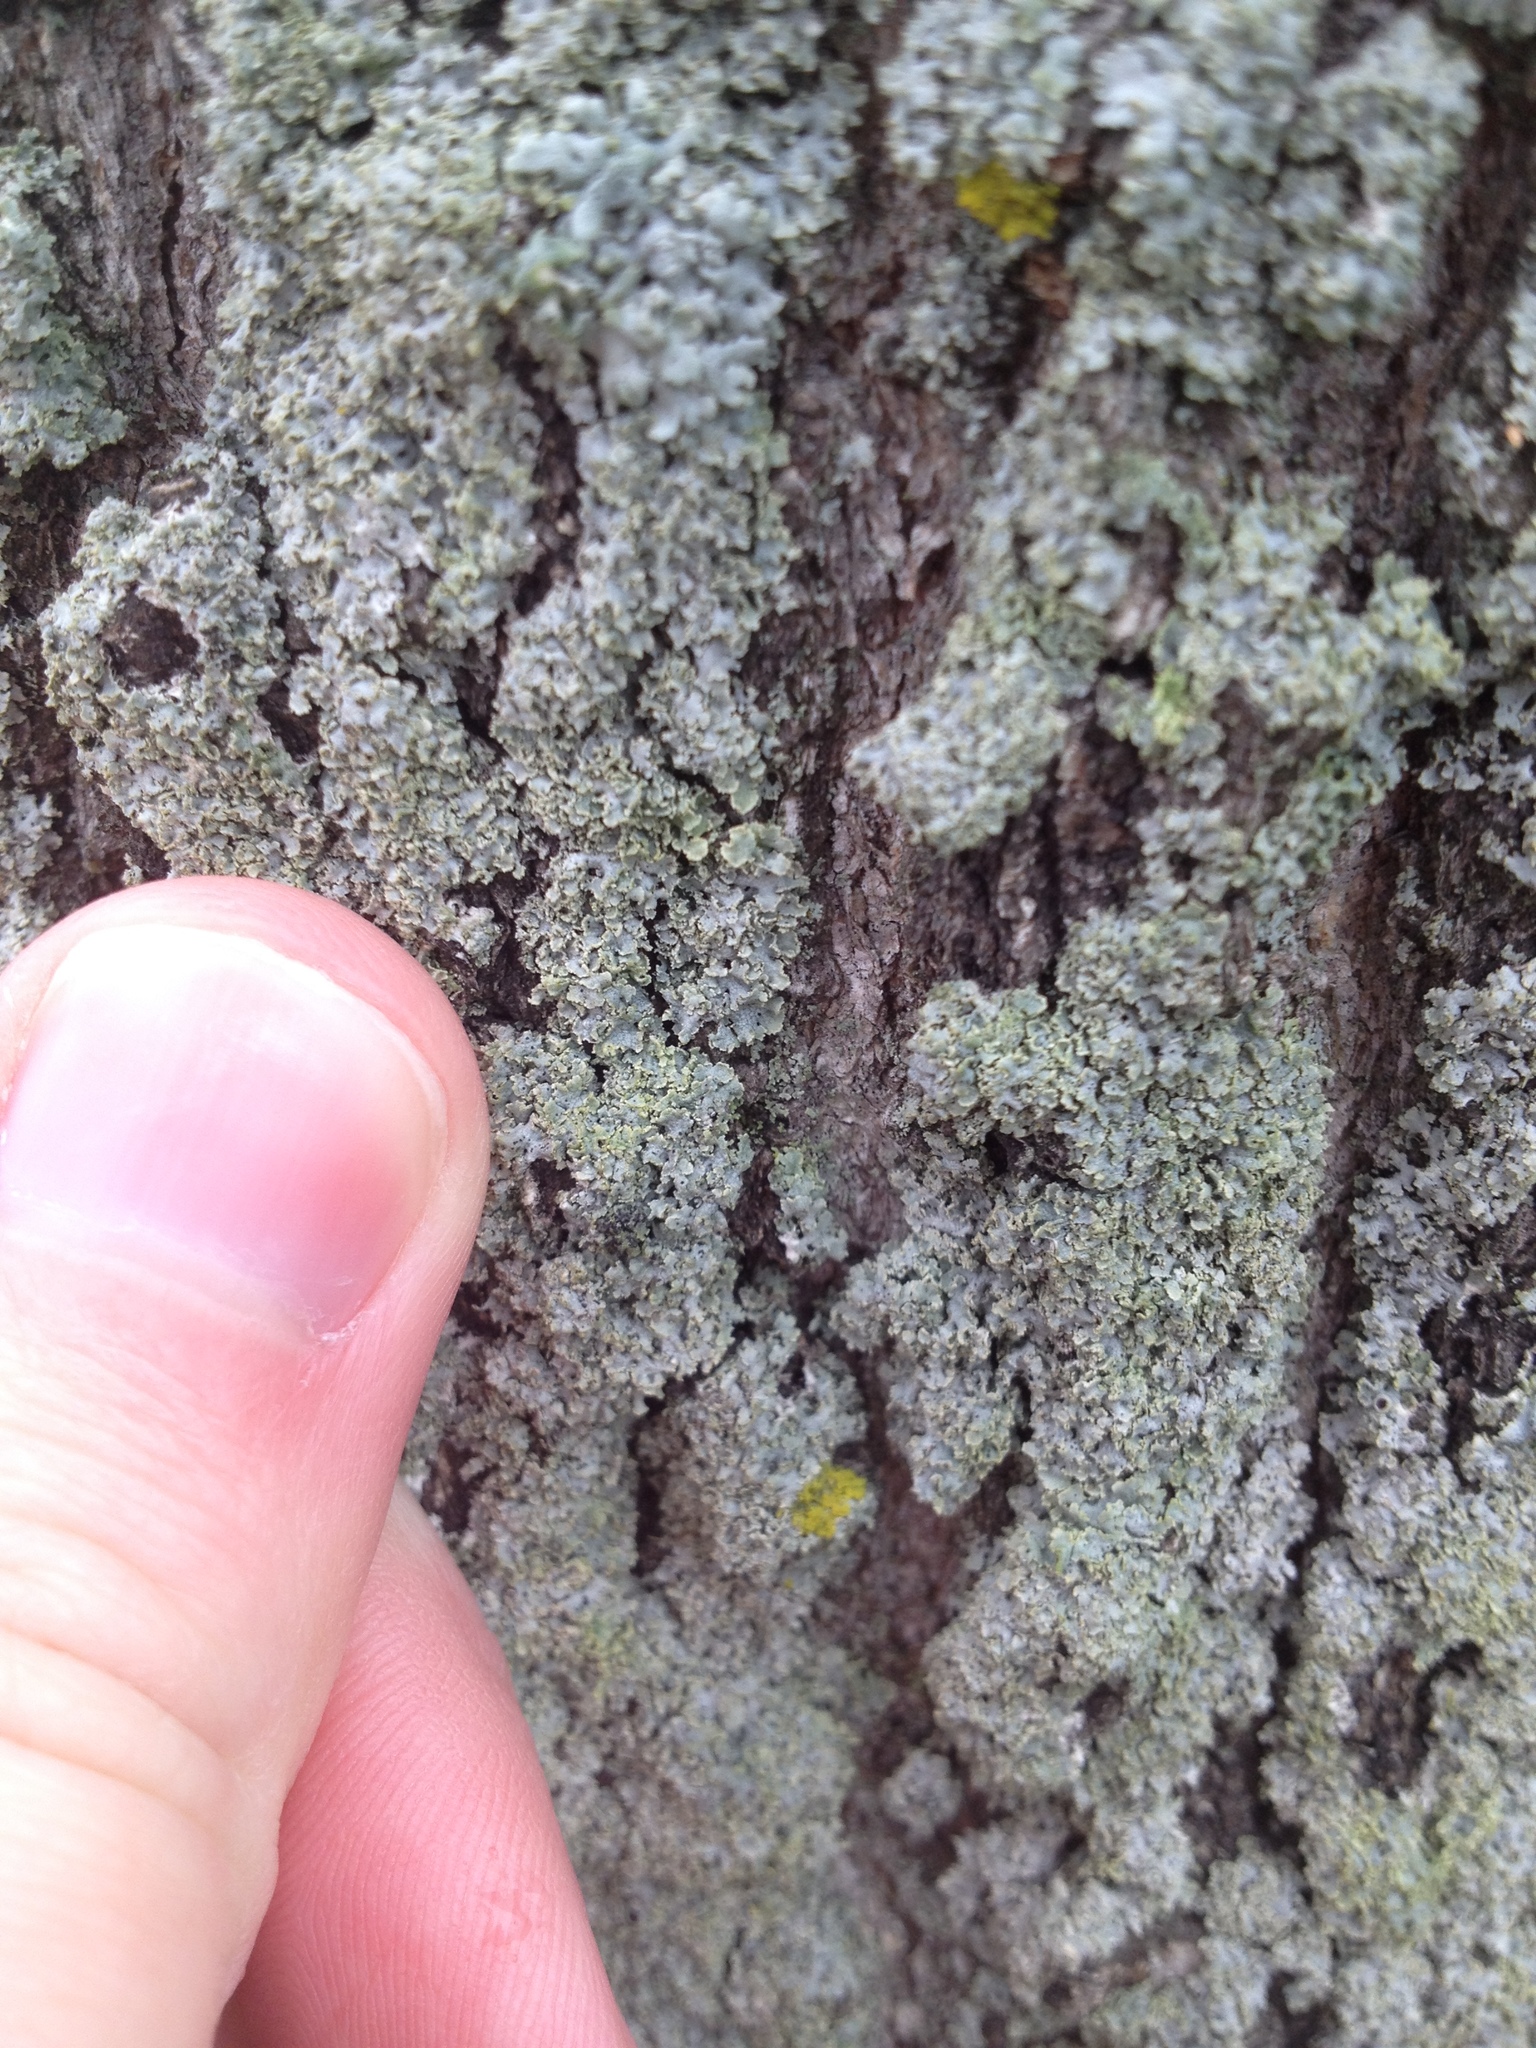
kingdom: Fungi
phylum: Ascomycota
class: Lecanoromycetes
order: Caliciales
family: Physciaceae
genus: Physcia
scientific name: Physcia millegrana
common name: Rosette lichen
